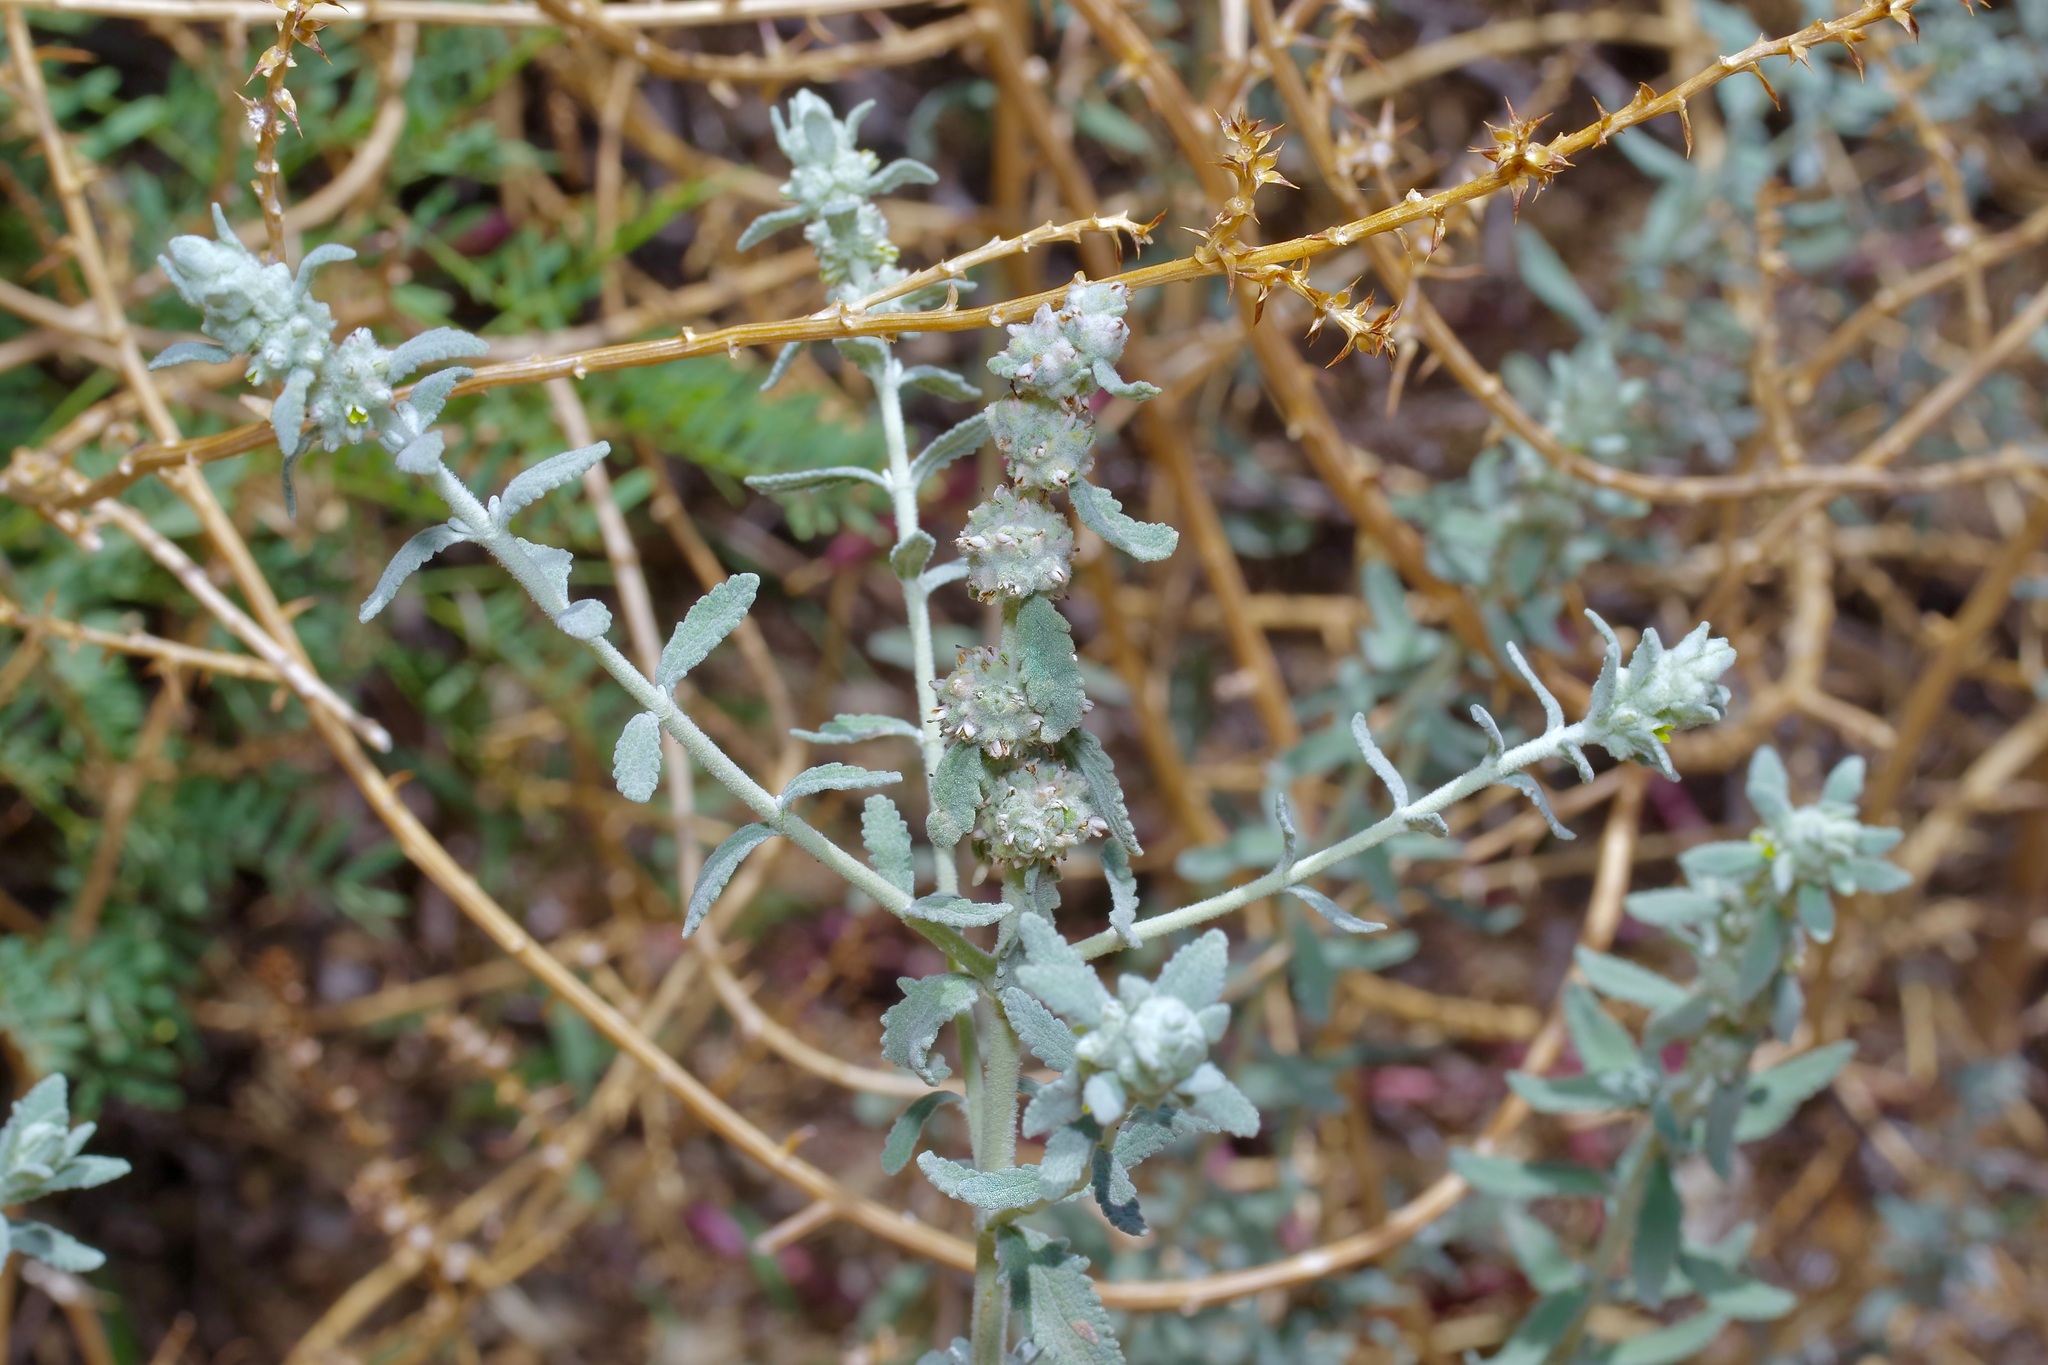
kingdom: Plantae
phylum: Tracheophyta
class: Magnoliopsida
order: Lamiales
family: Scrophulariaceae
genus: Buddleja
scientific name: Buddleja scordioides
